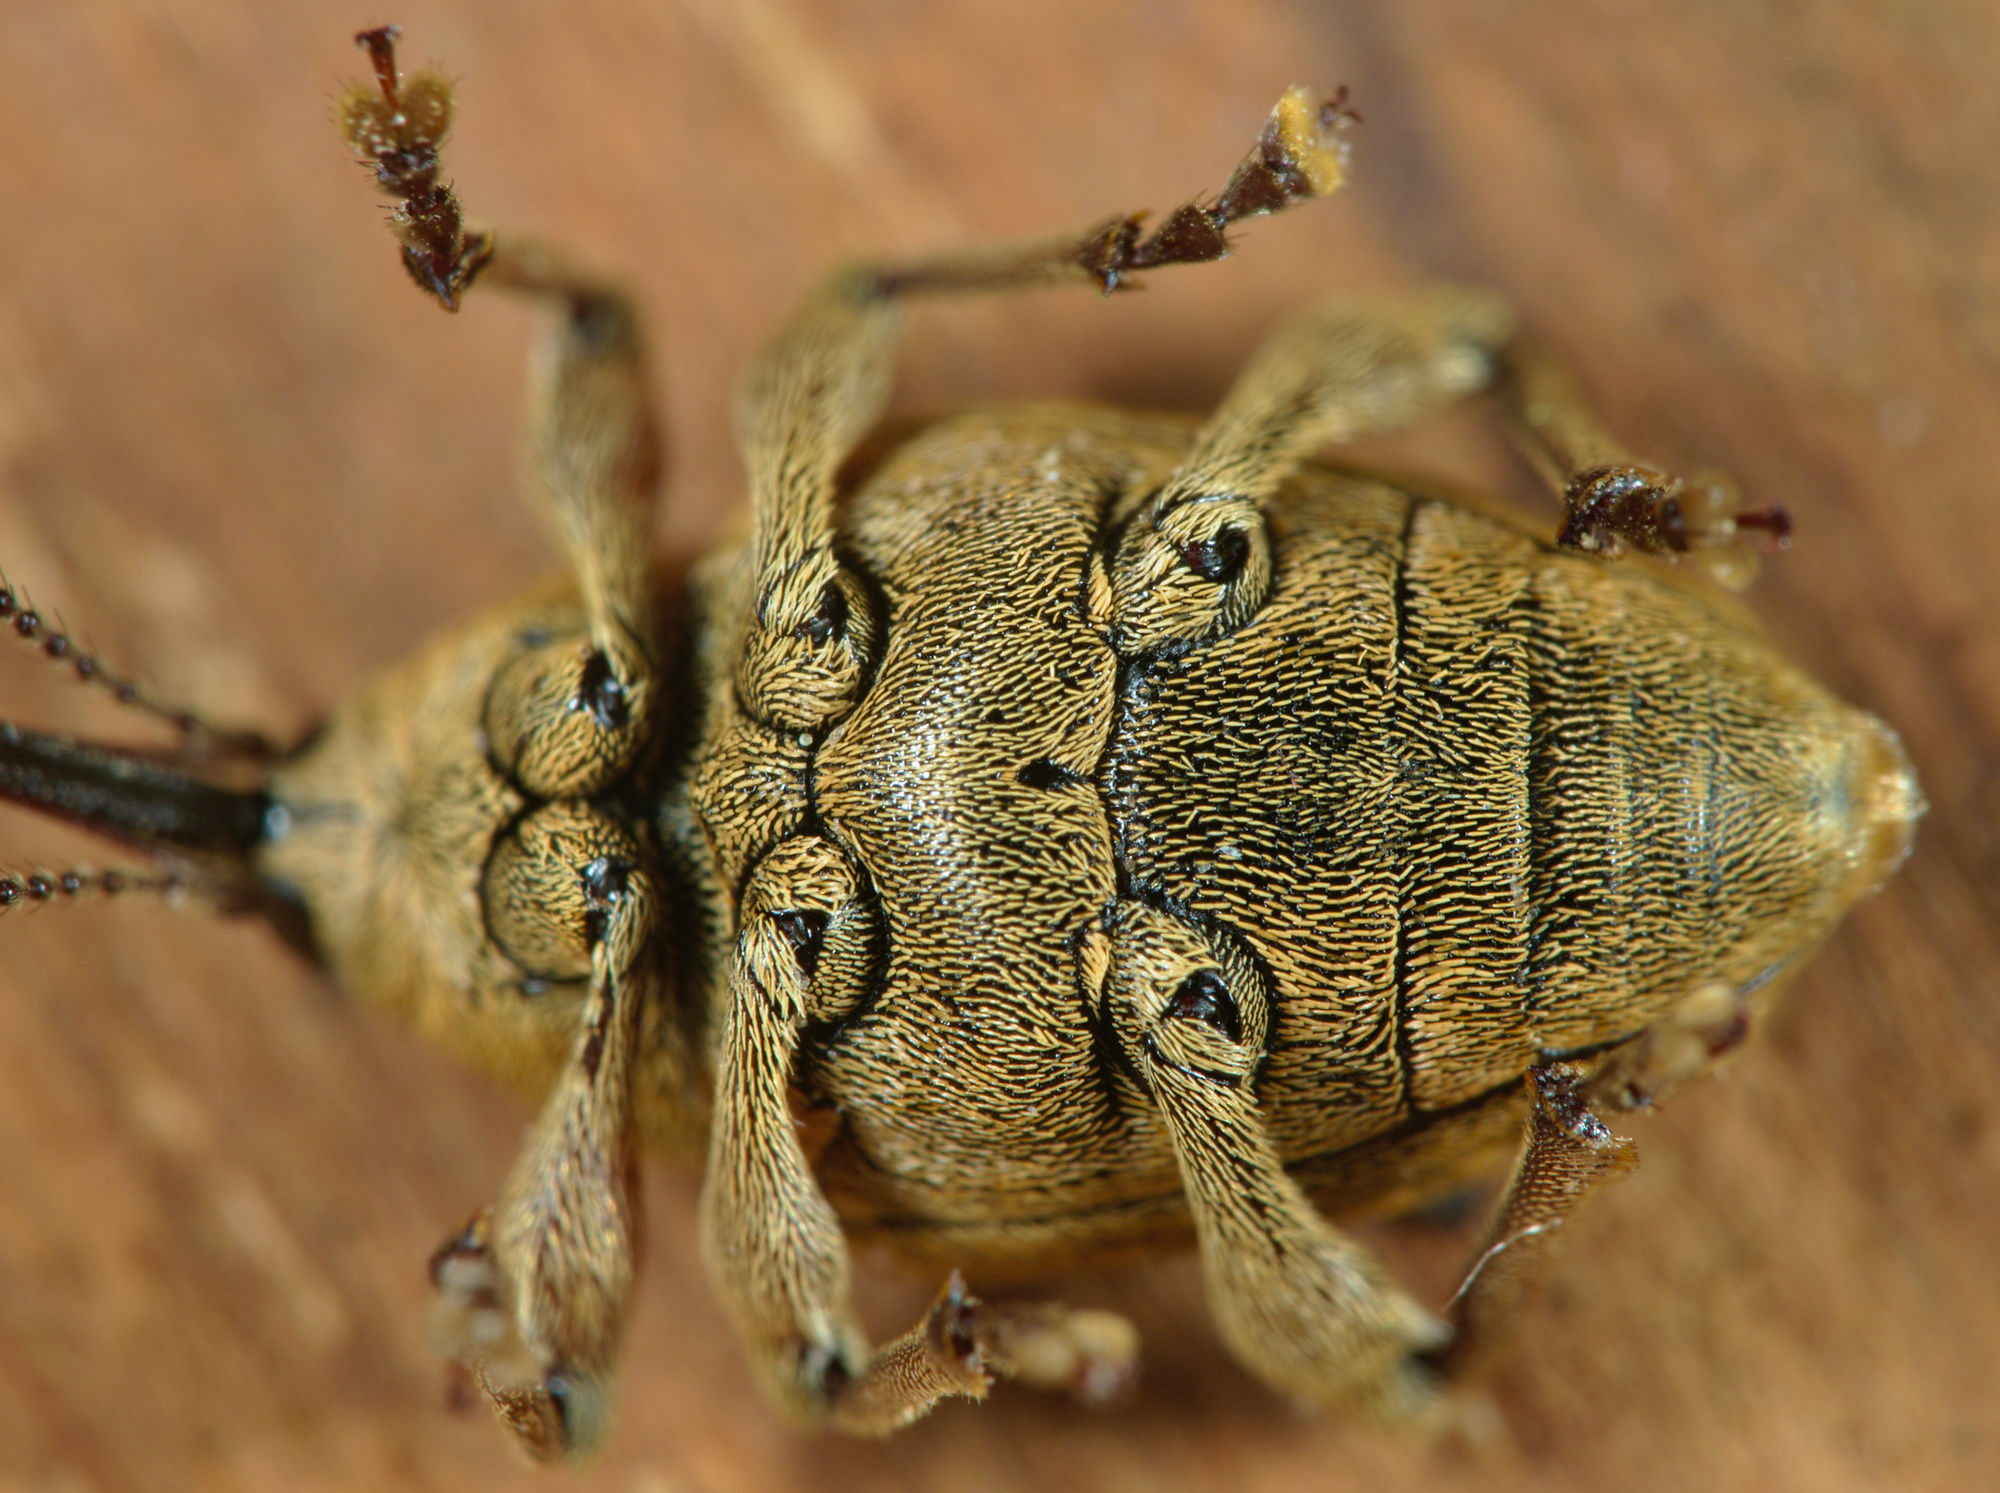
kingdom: Animalia
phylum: Arthropoda
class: Insecta
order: Coleoptera
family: Curculionidae
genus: Curculio
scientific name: Curculio nucum
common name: Nut weevil
